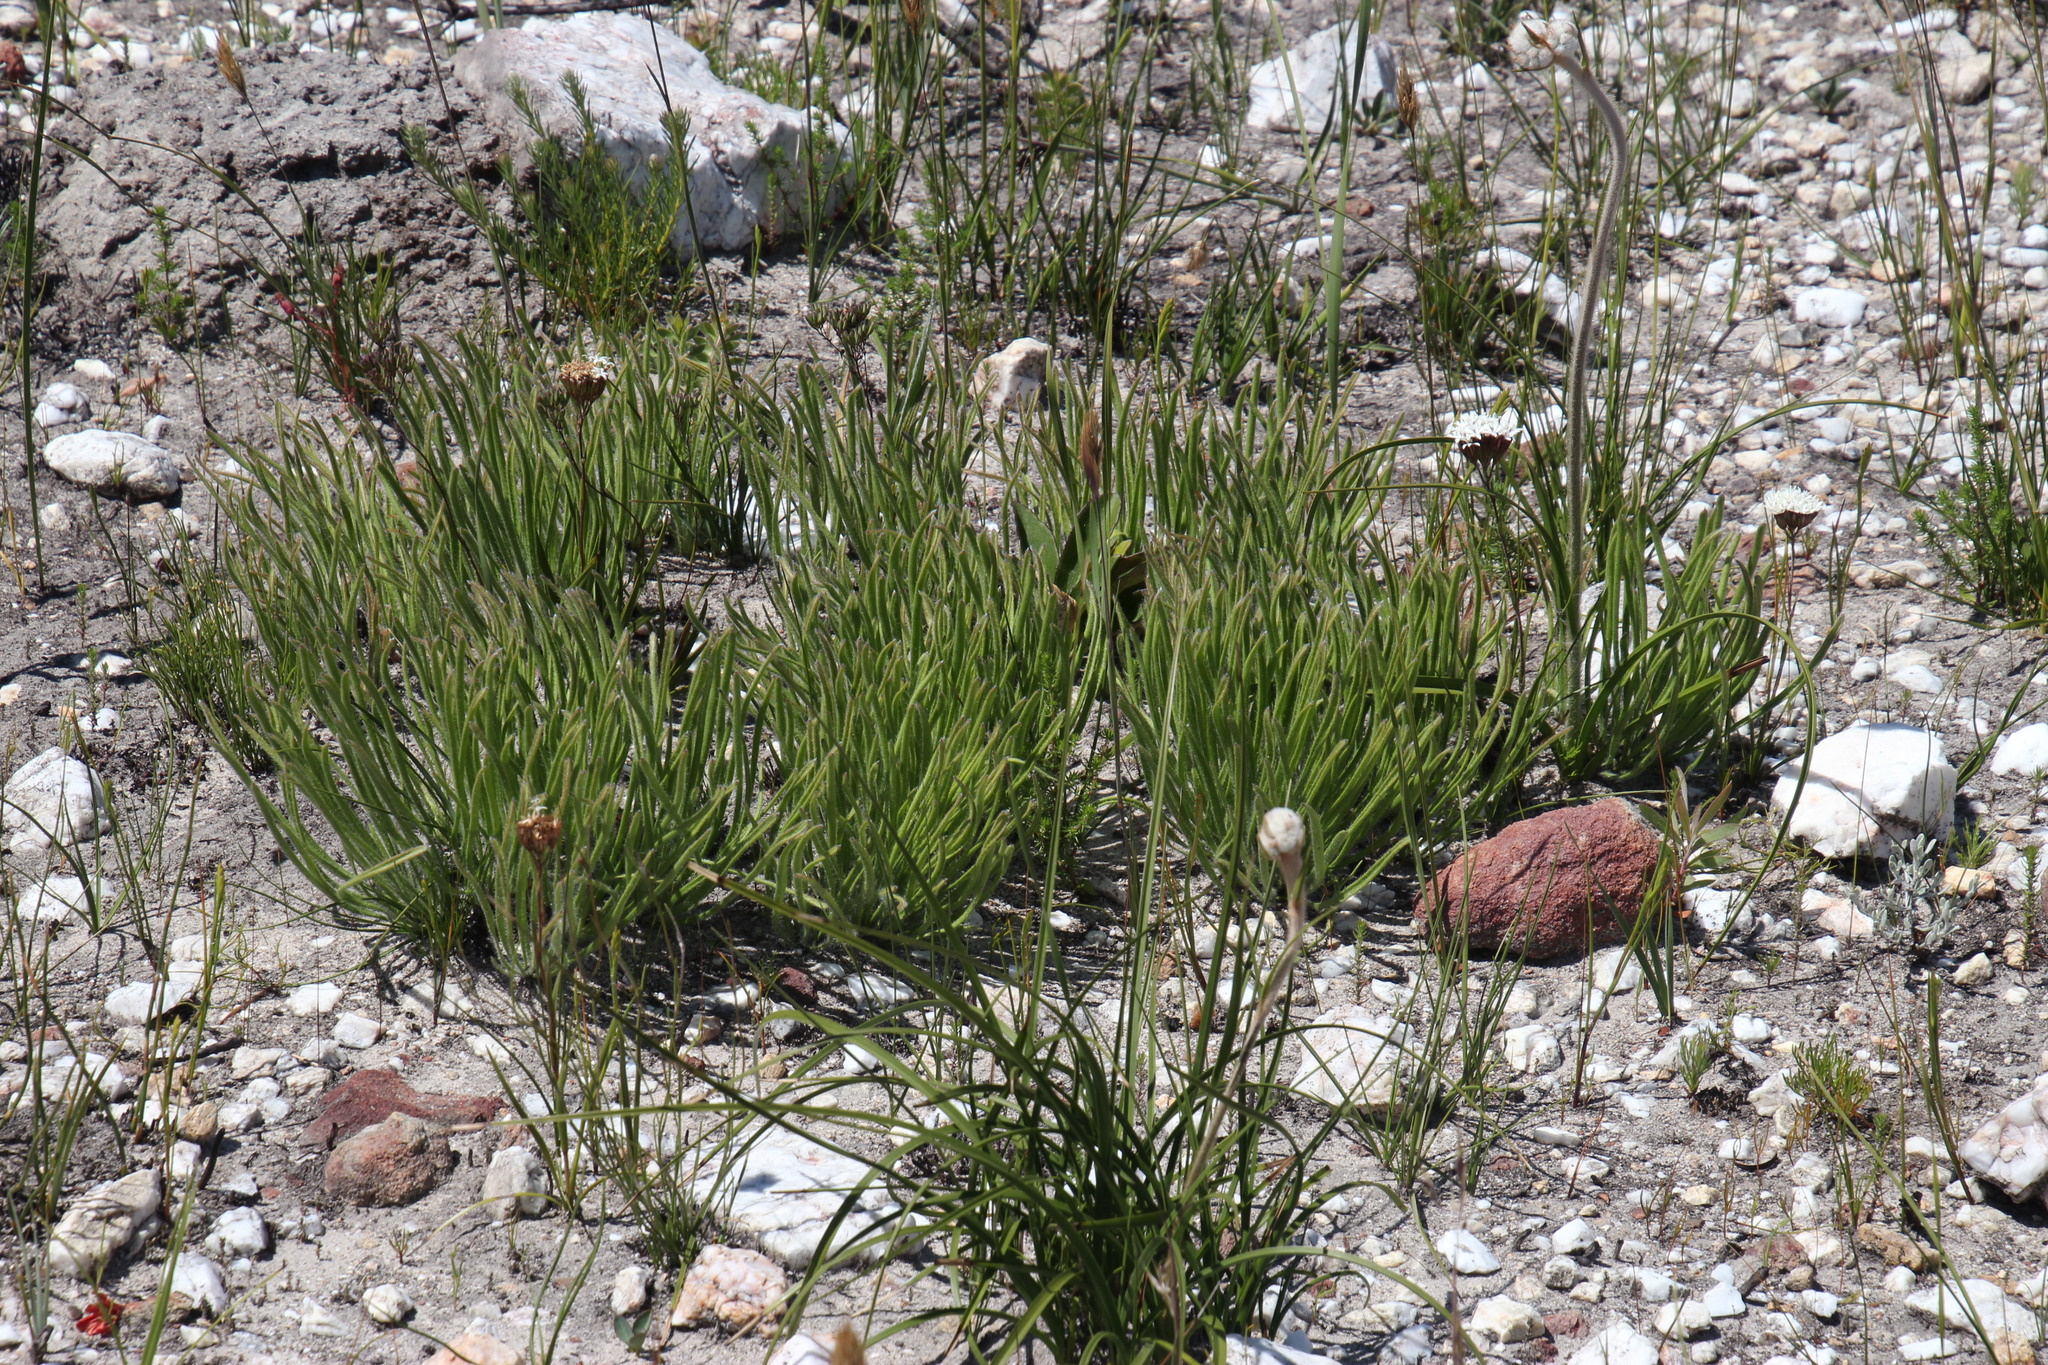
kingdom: Plantae
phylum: Tracheophyta
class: Magnoliopsida
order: Proteales
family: Proteaceae
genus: Protea
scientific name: Protea scabra
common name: Sandpaper-leaf sugarbush
